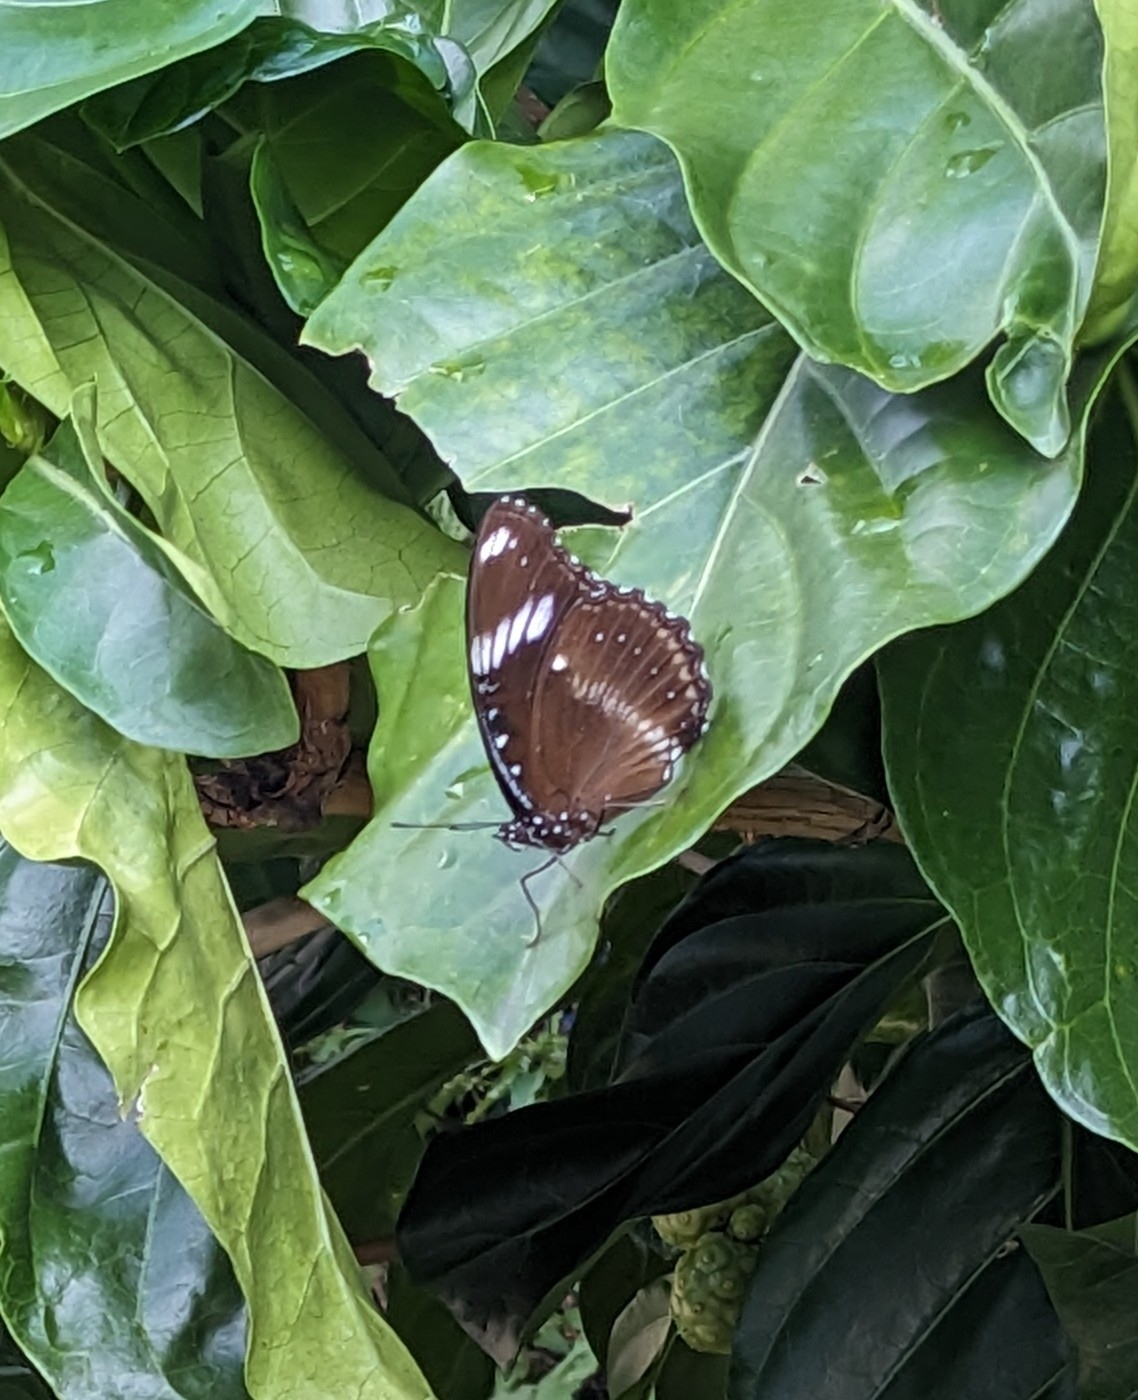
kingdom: Animalia
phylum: Arthropoda
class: Insecta
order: Lepidoptera
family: Nymphalidae
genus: Hypolimnas
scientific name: Hypolimnas bolina
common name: Great eggfly
